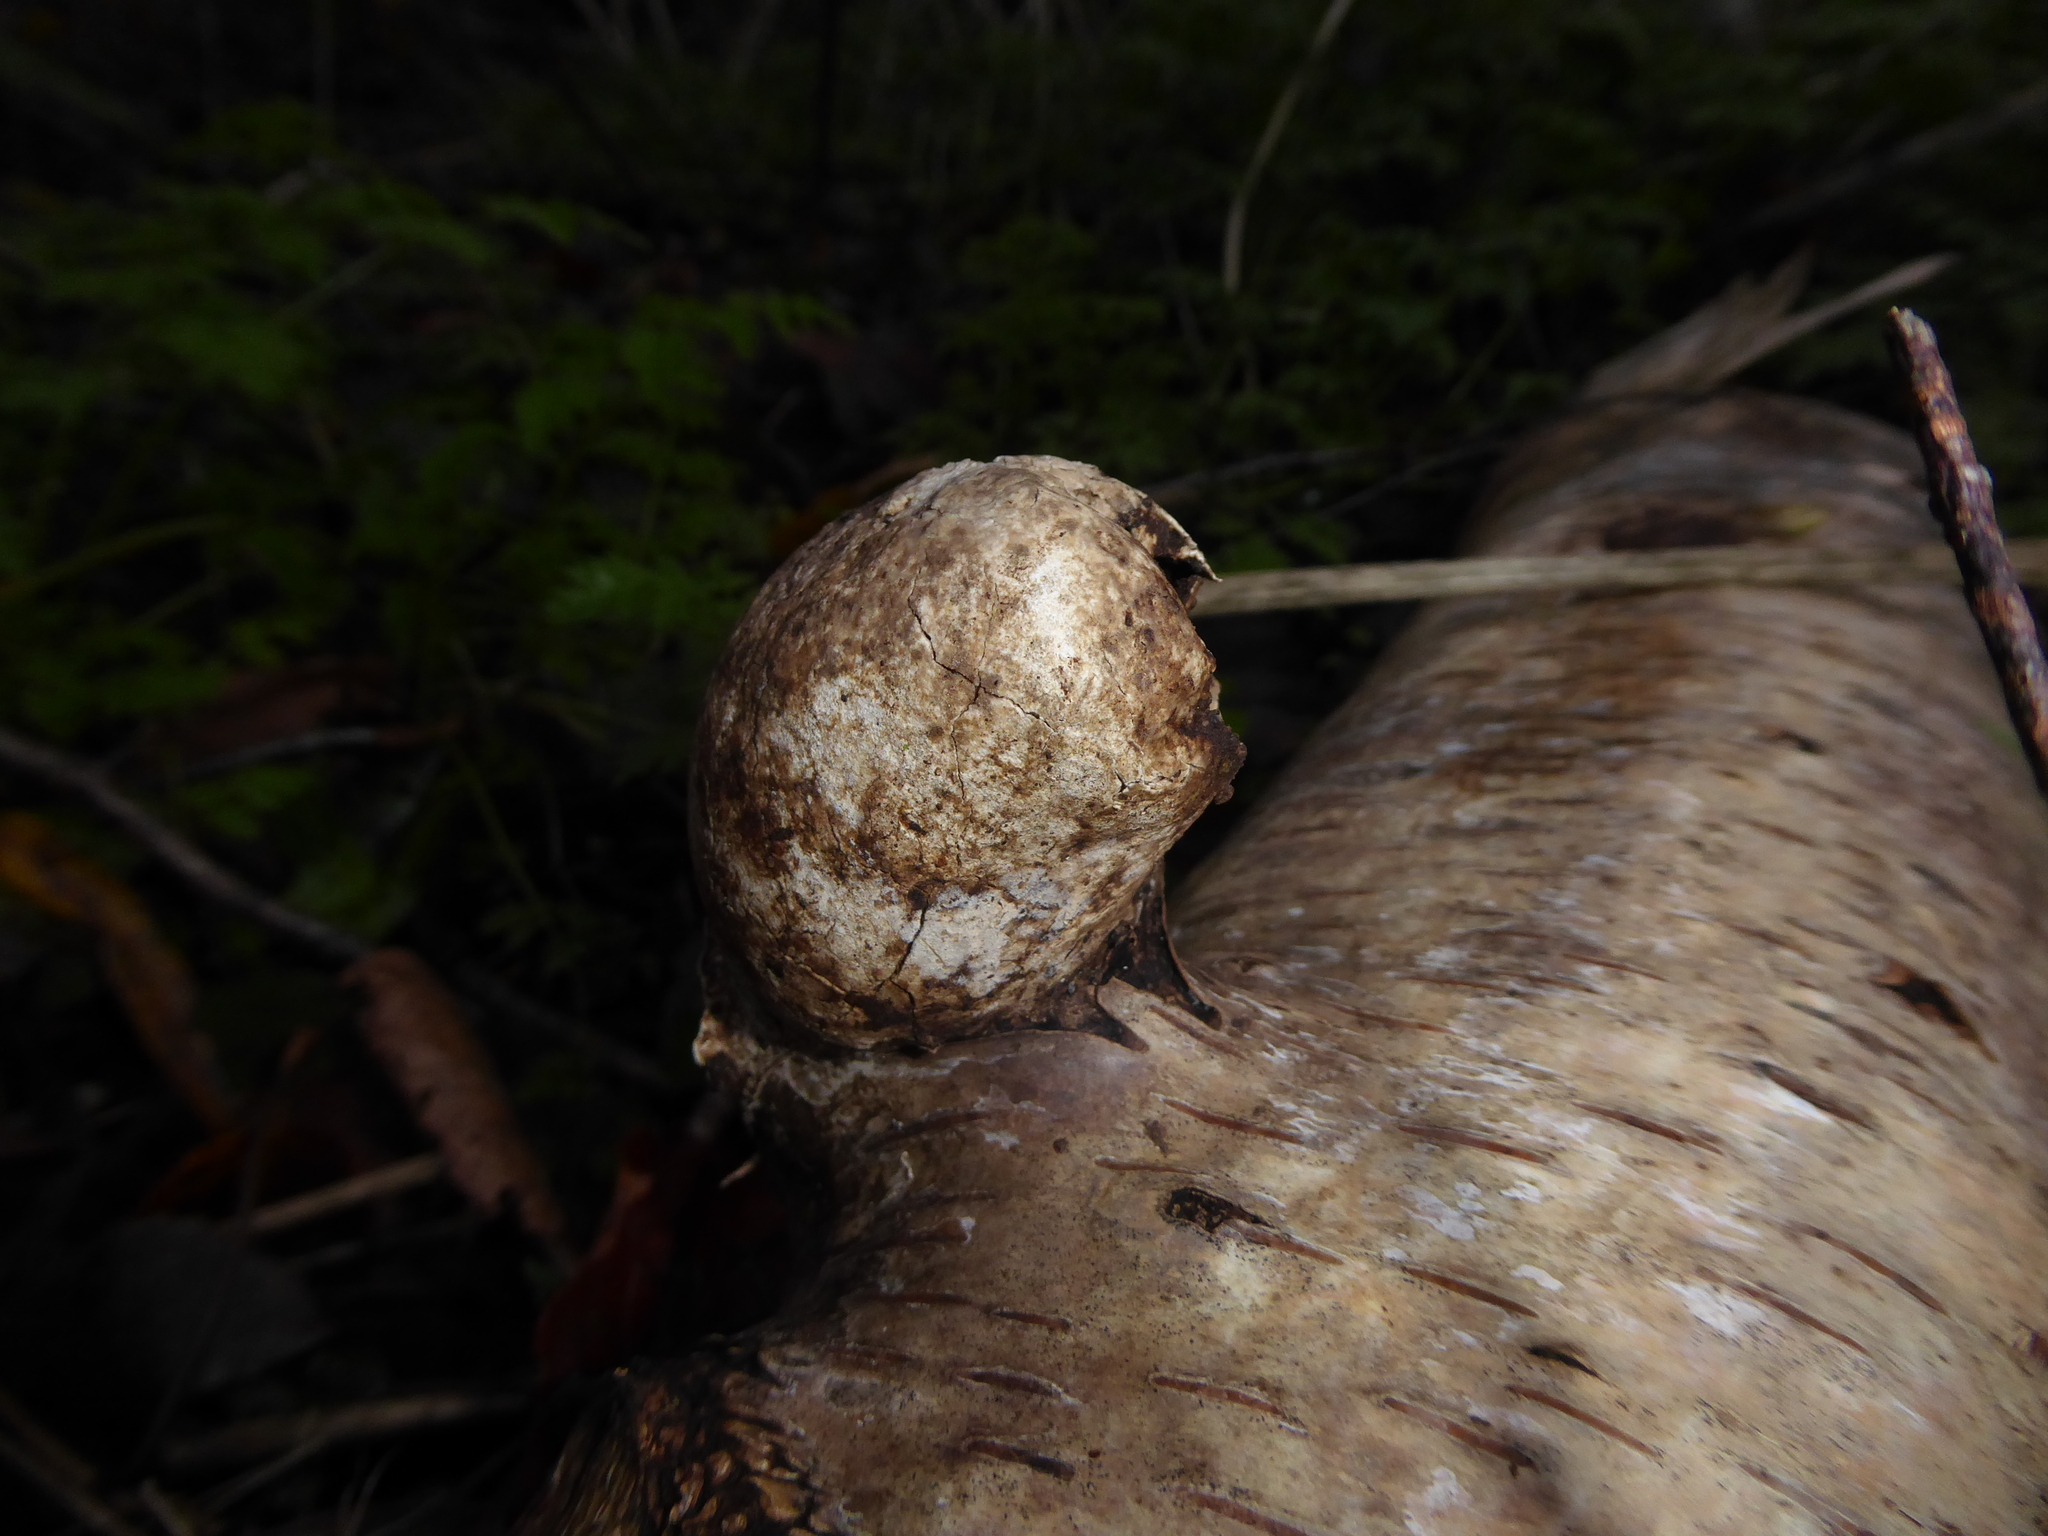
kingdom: Fungi
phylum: Basidiomycota
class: Agaricomycetes
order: Polyporales
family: Fomitopsidaceae
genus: Fomitopsis
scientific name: Fomitopsis betulina
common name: Birch polypore
